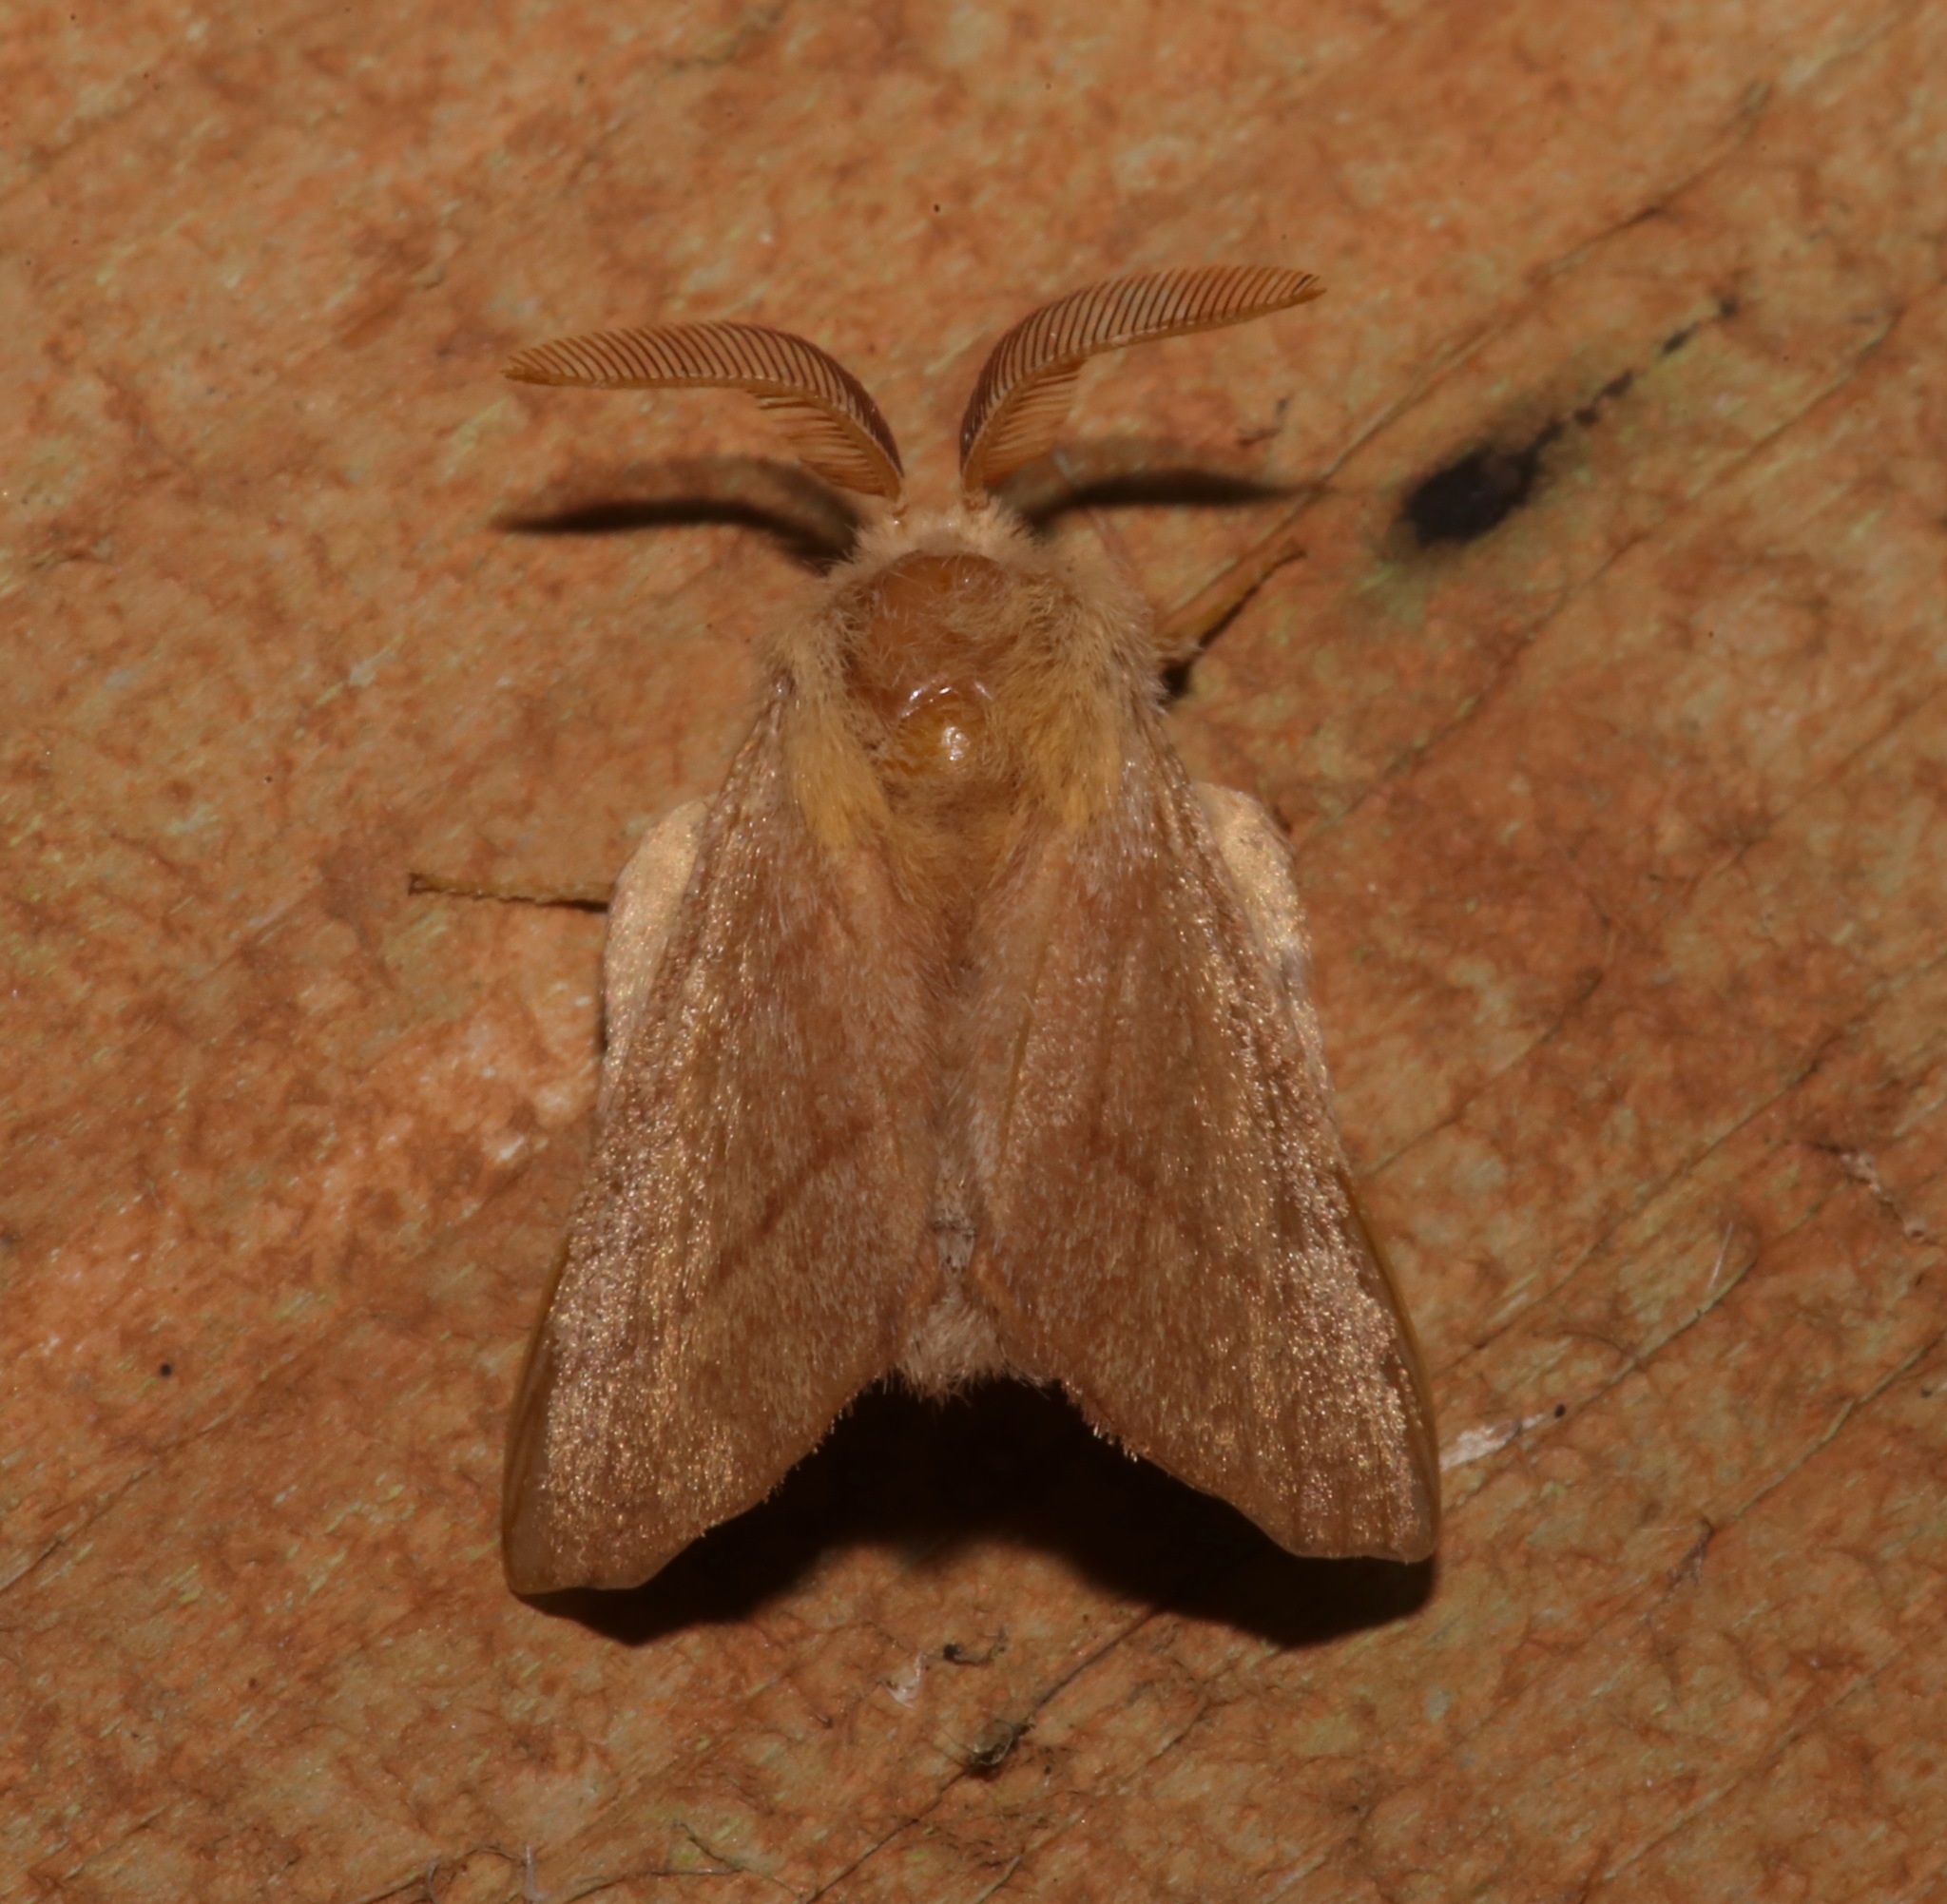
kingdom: Animalia
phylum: Arthropoda
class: Insecta
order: Lepidoptera
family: Lasiocampidae
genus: Malacosoma
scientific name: Malacosoma disstria
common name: Forest tent caterpillar
